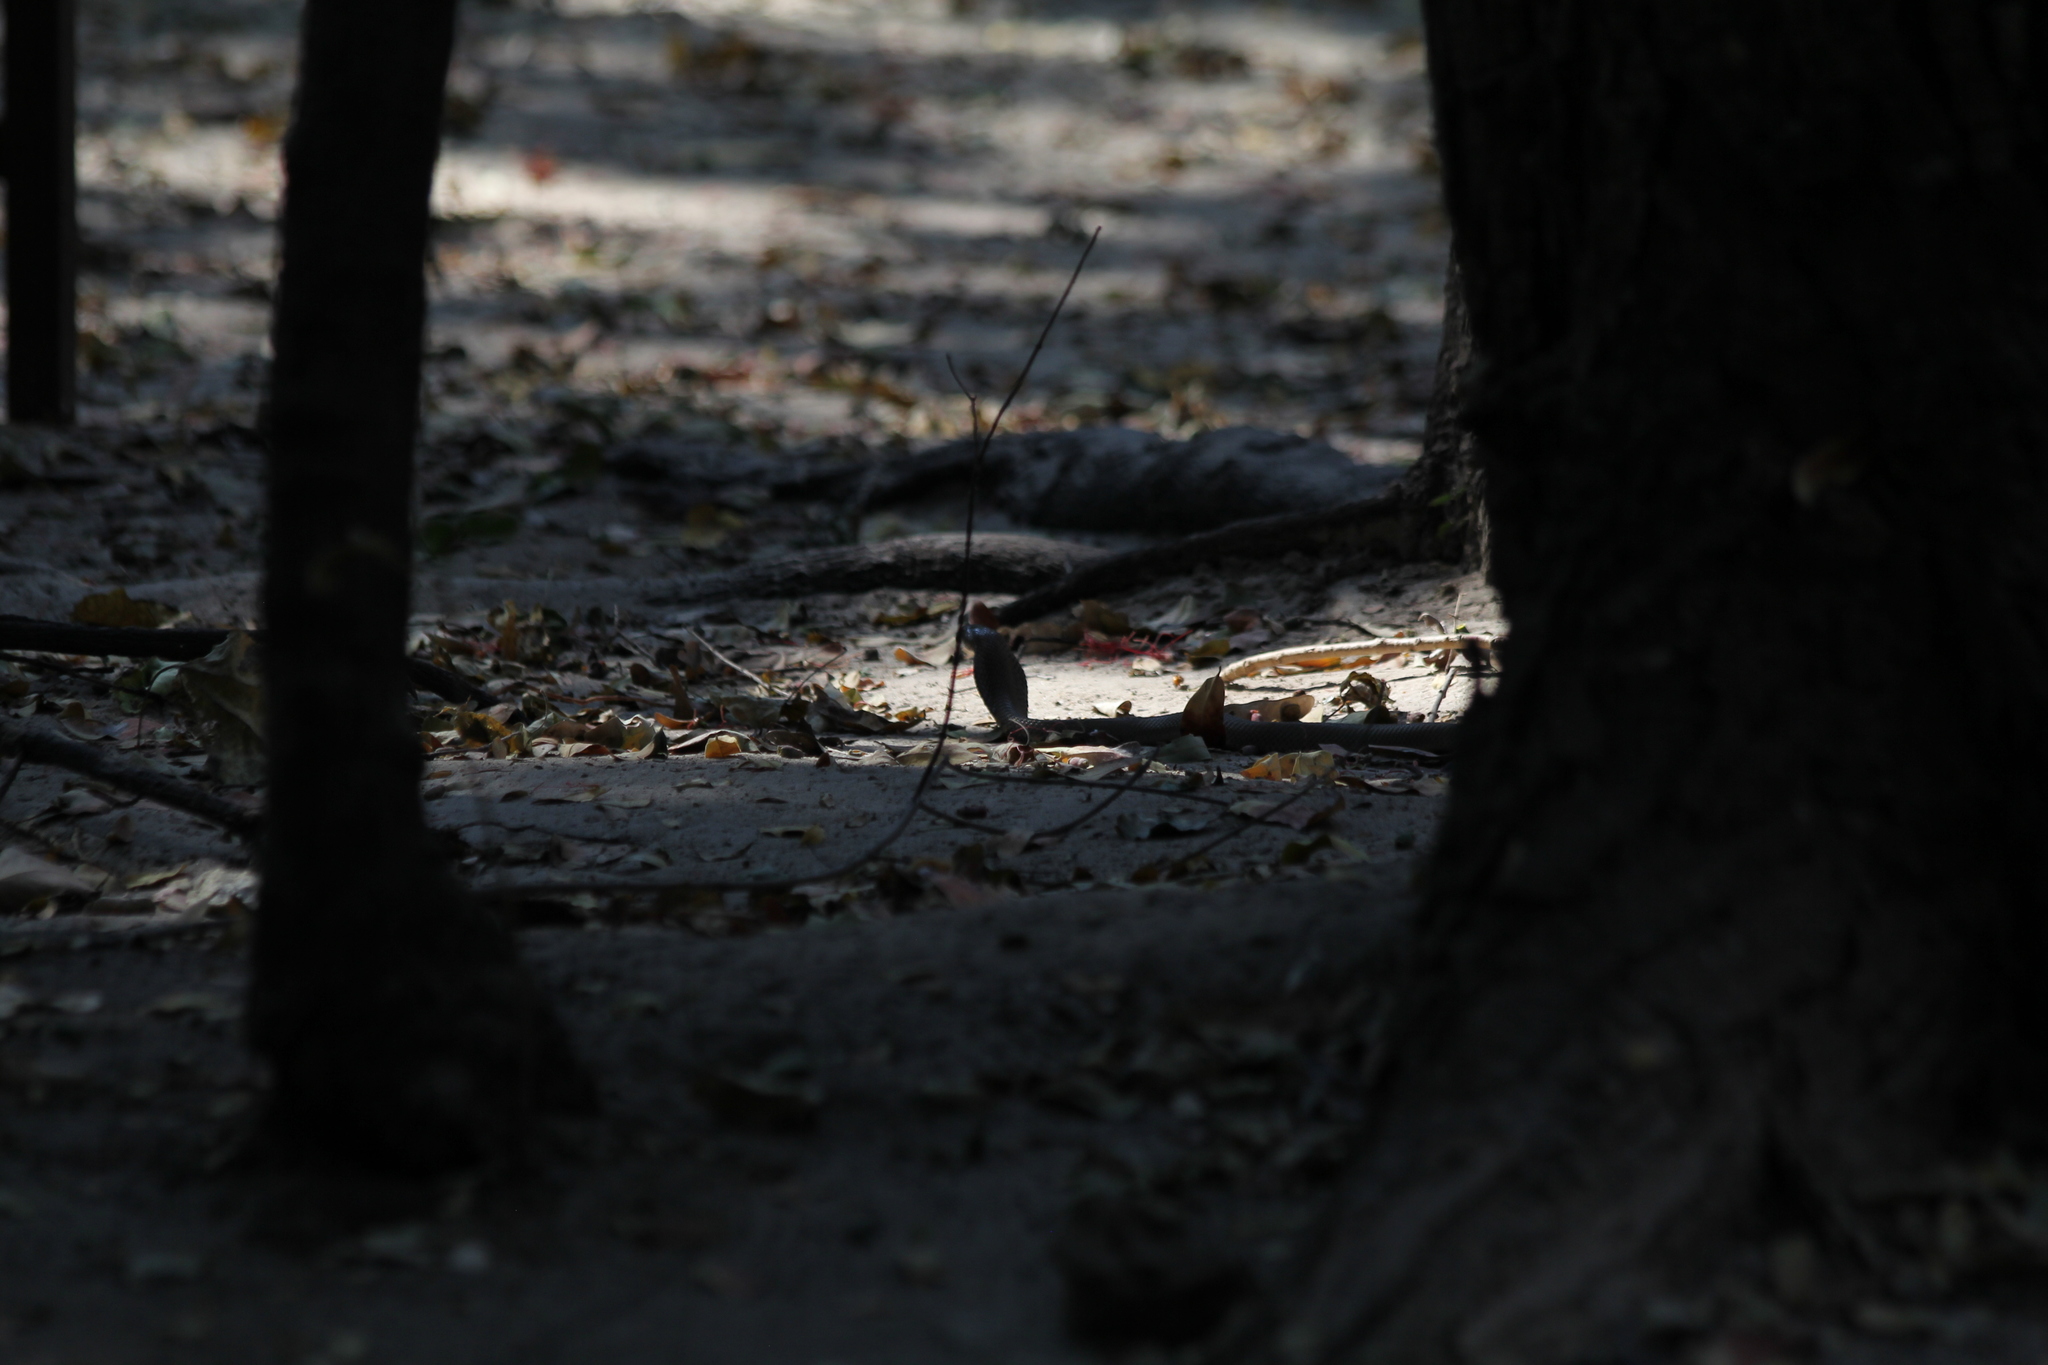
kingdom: Animalia
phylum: Chordata
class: Squamata
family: Elapidae
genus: Naja
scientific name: Naja mossambica
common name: Mozambique spitting cobra
